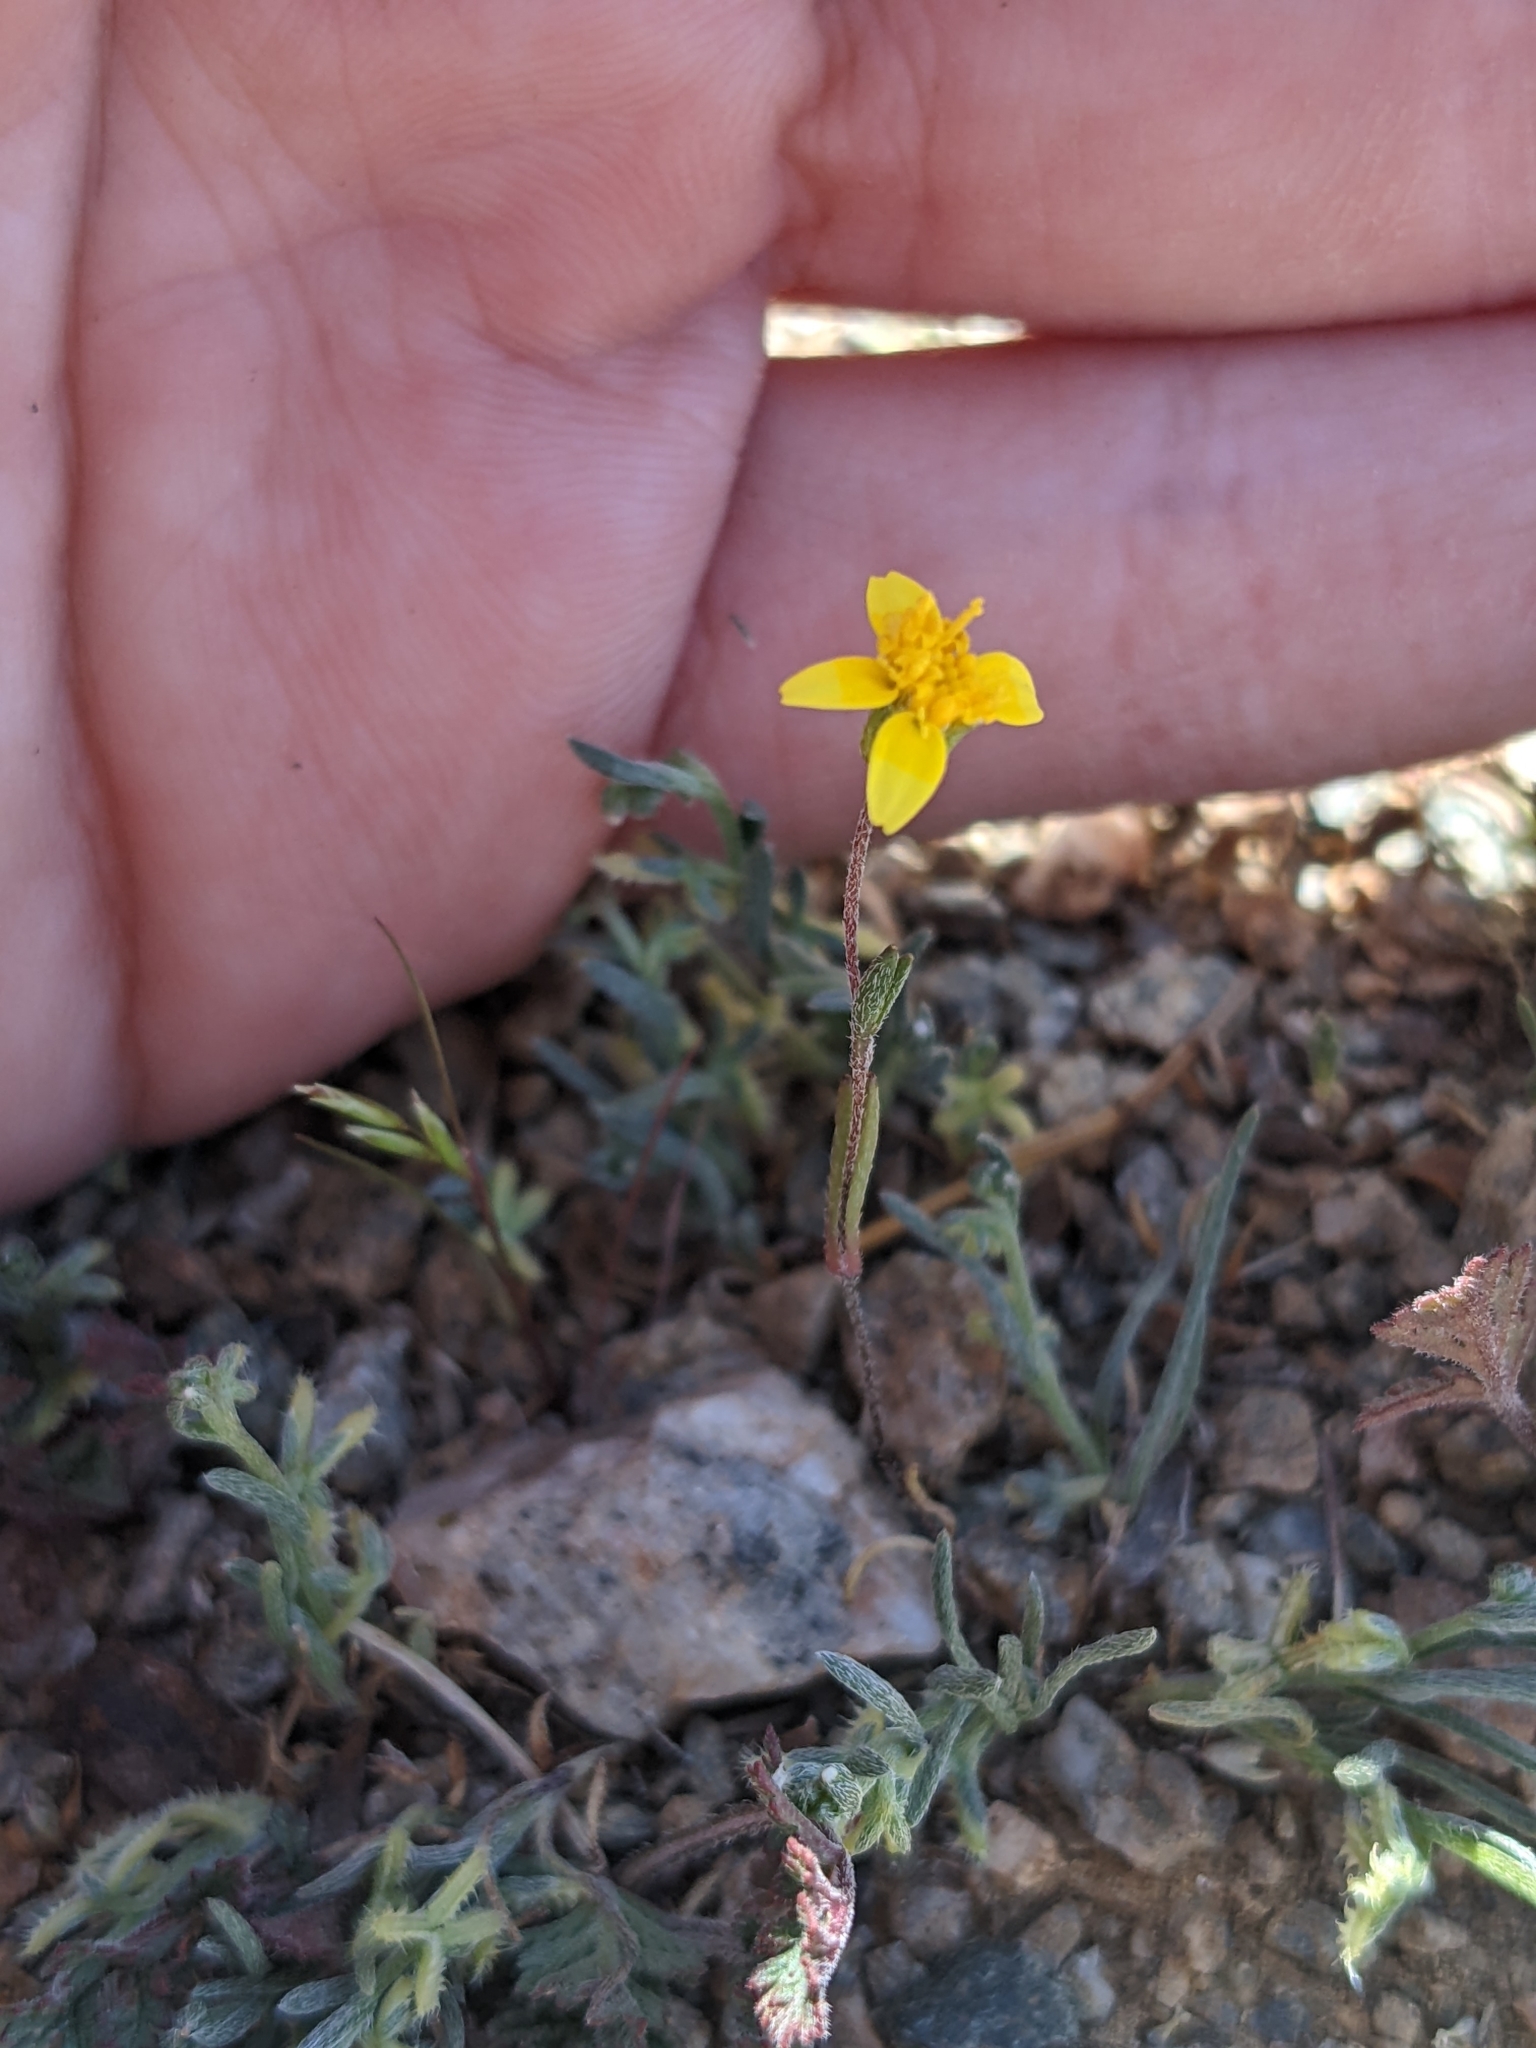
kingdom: Plantae
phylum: Tracheophyta
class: Magnoliopsida
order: Asterales
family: Asteraceae
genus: Lasthenia
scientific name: Lasthenia gracilis
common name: Common goldfields
